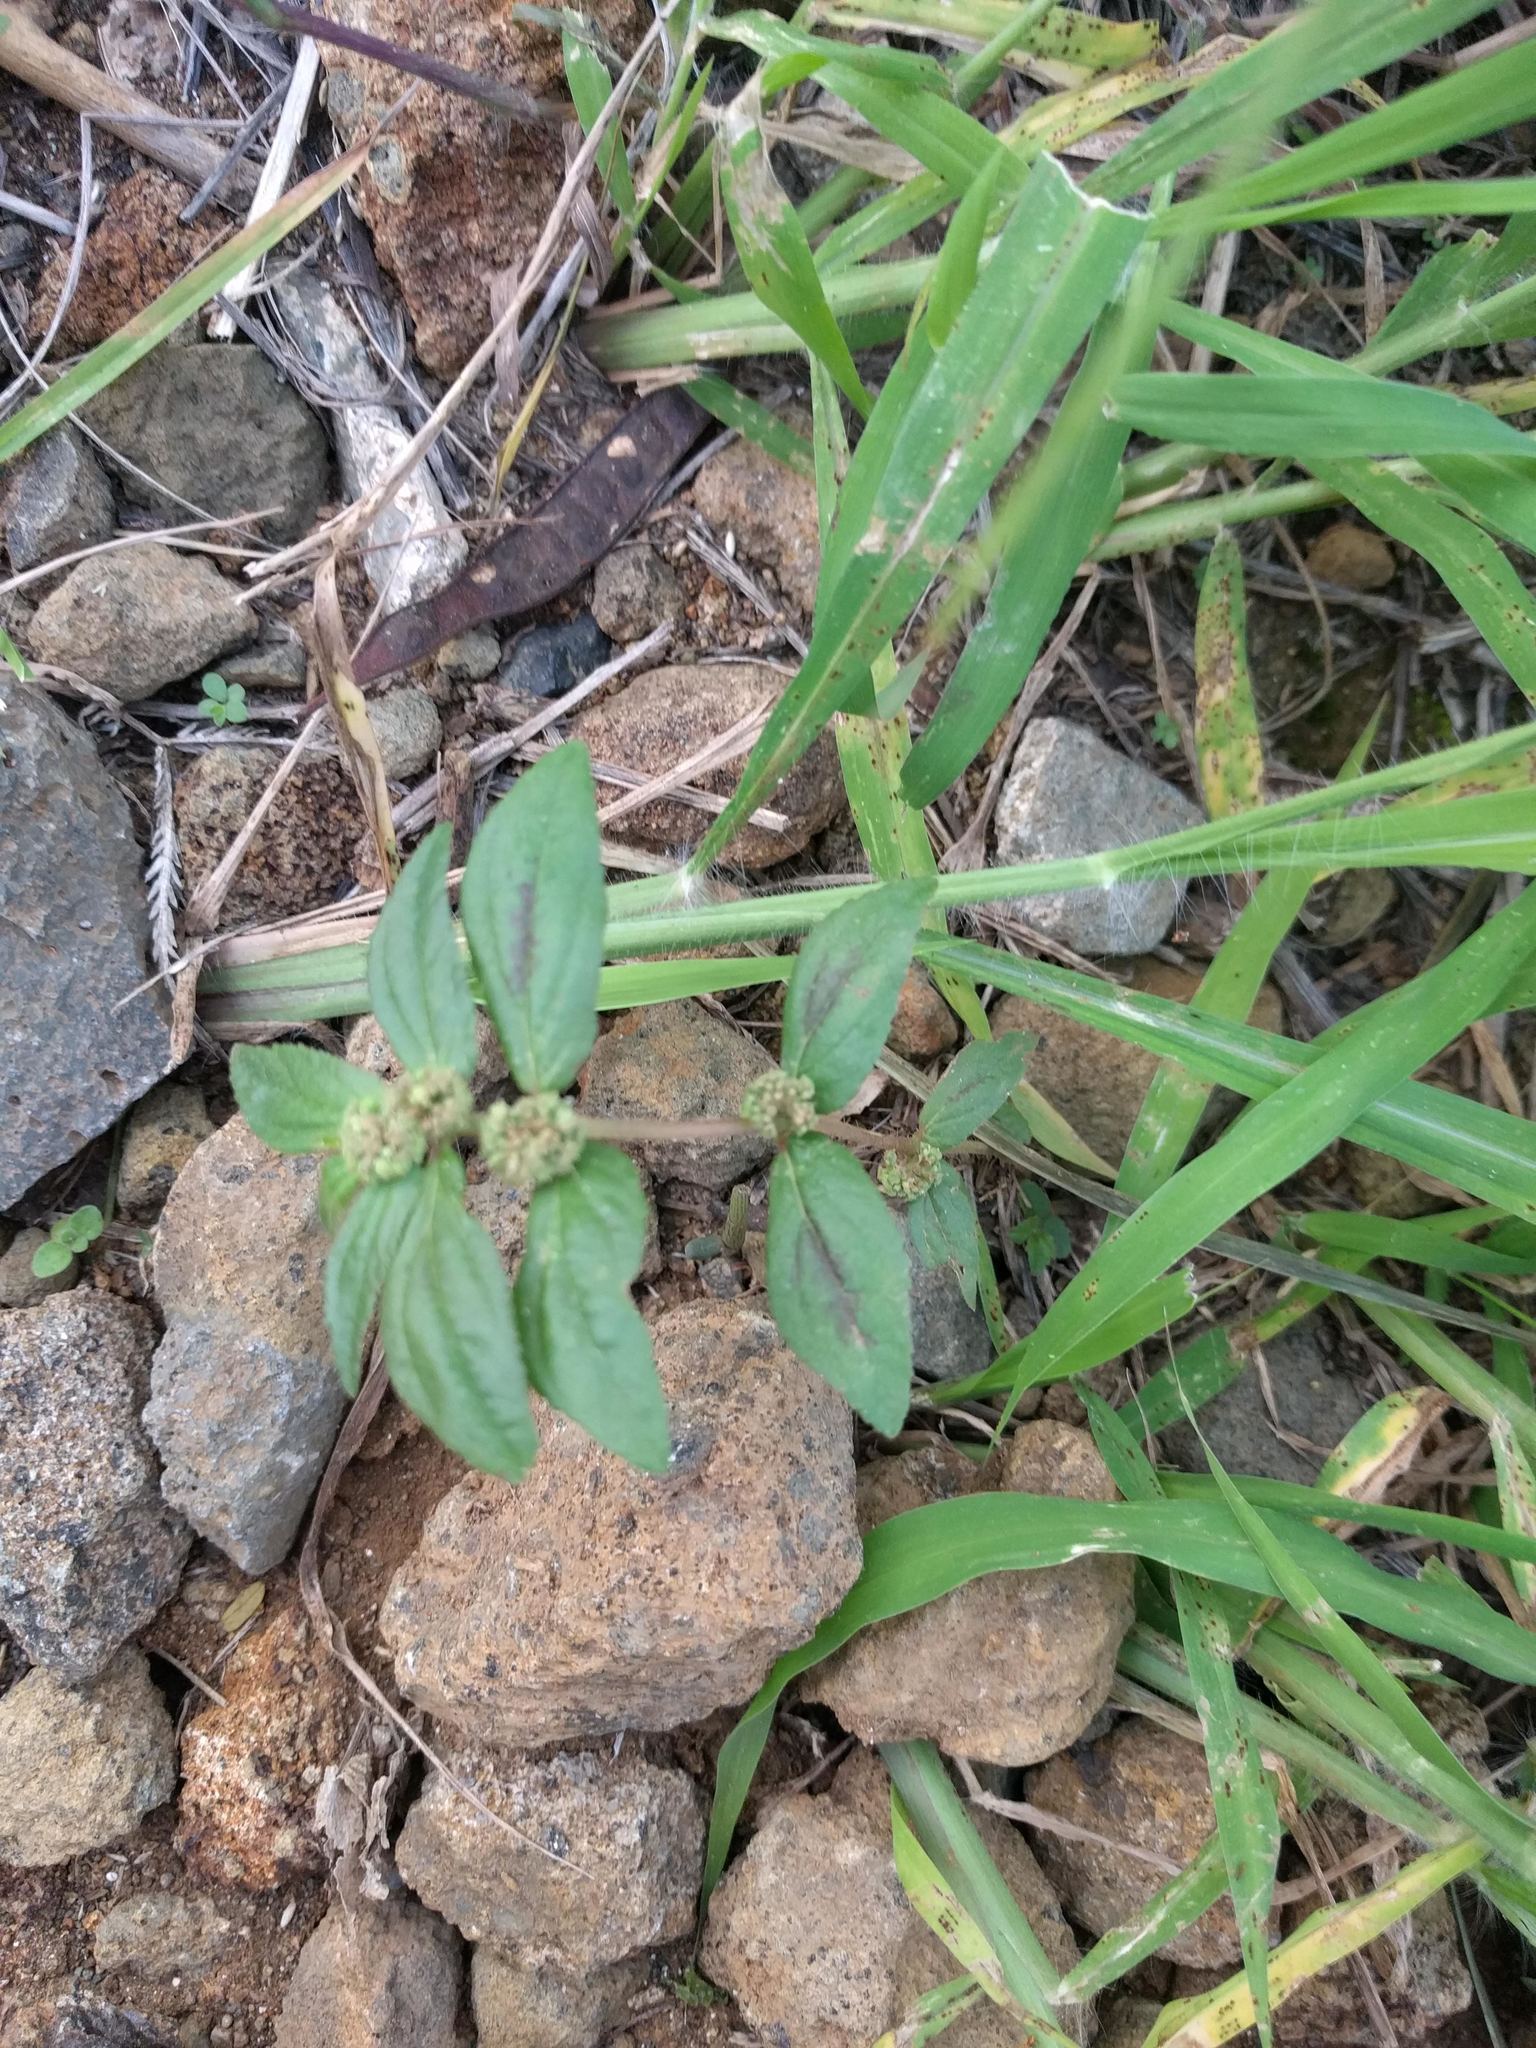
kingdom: Plantae
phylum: Tracheophyta
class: Magnoliopsida
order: Malpighiales
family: Euphorbiaceae
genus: Euphorbia
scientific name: Euphorbia hirta
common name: Pillpod sandmat
